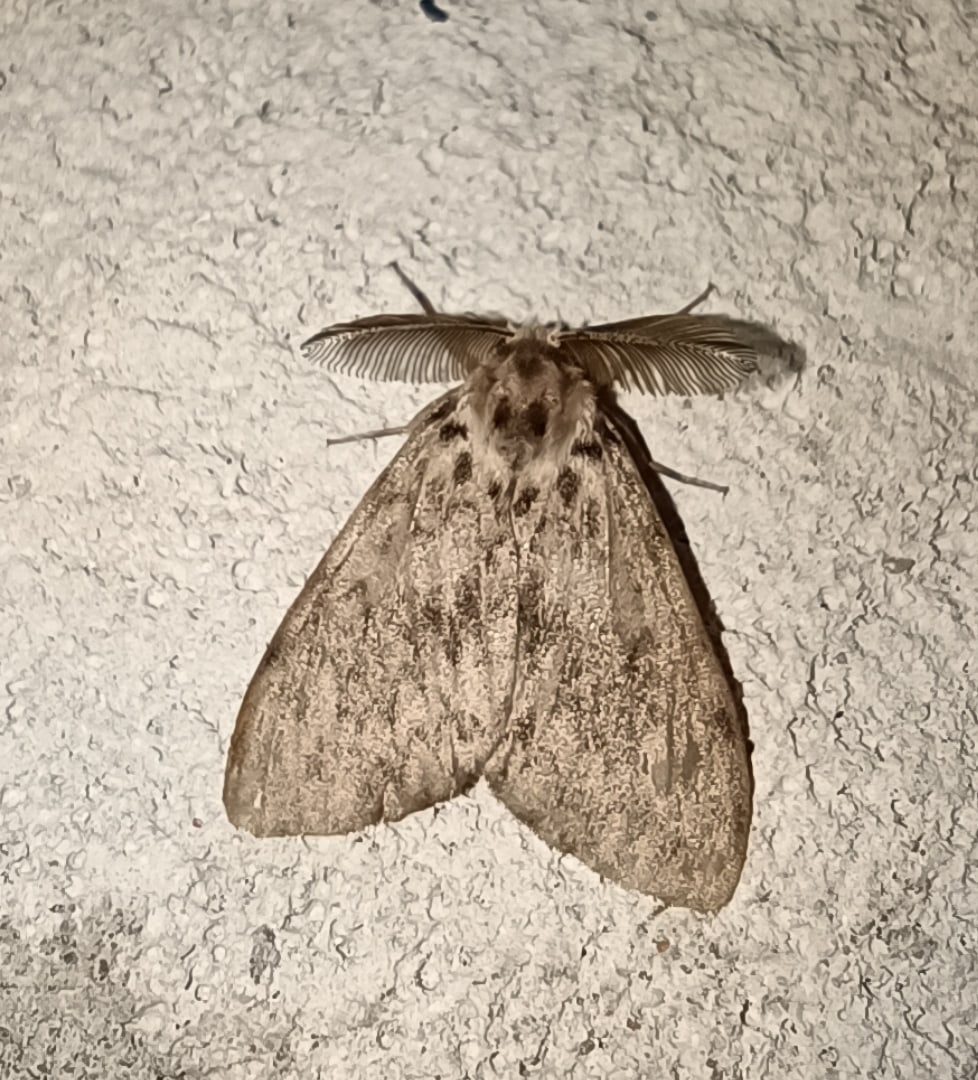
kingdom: Animalia
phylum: Arthropoda
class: Insecta
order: Lepidoptera
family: Erebidae
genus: Lymantria
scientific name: Lymantria monacha
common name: Black arches
